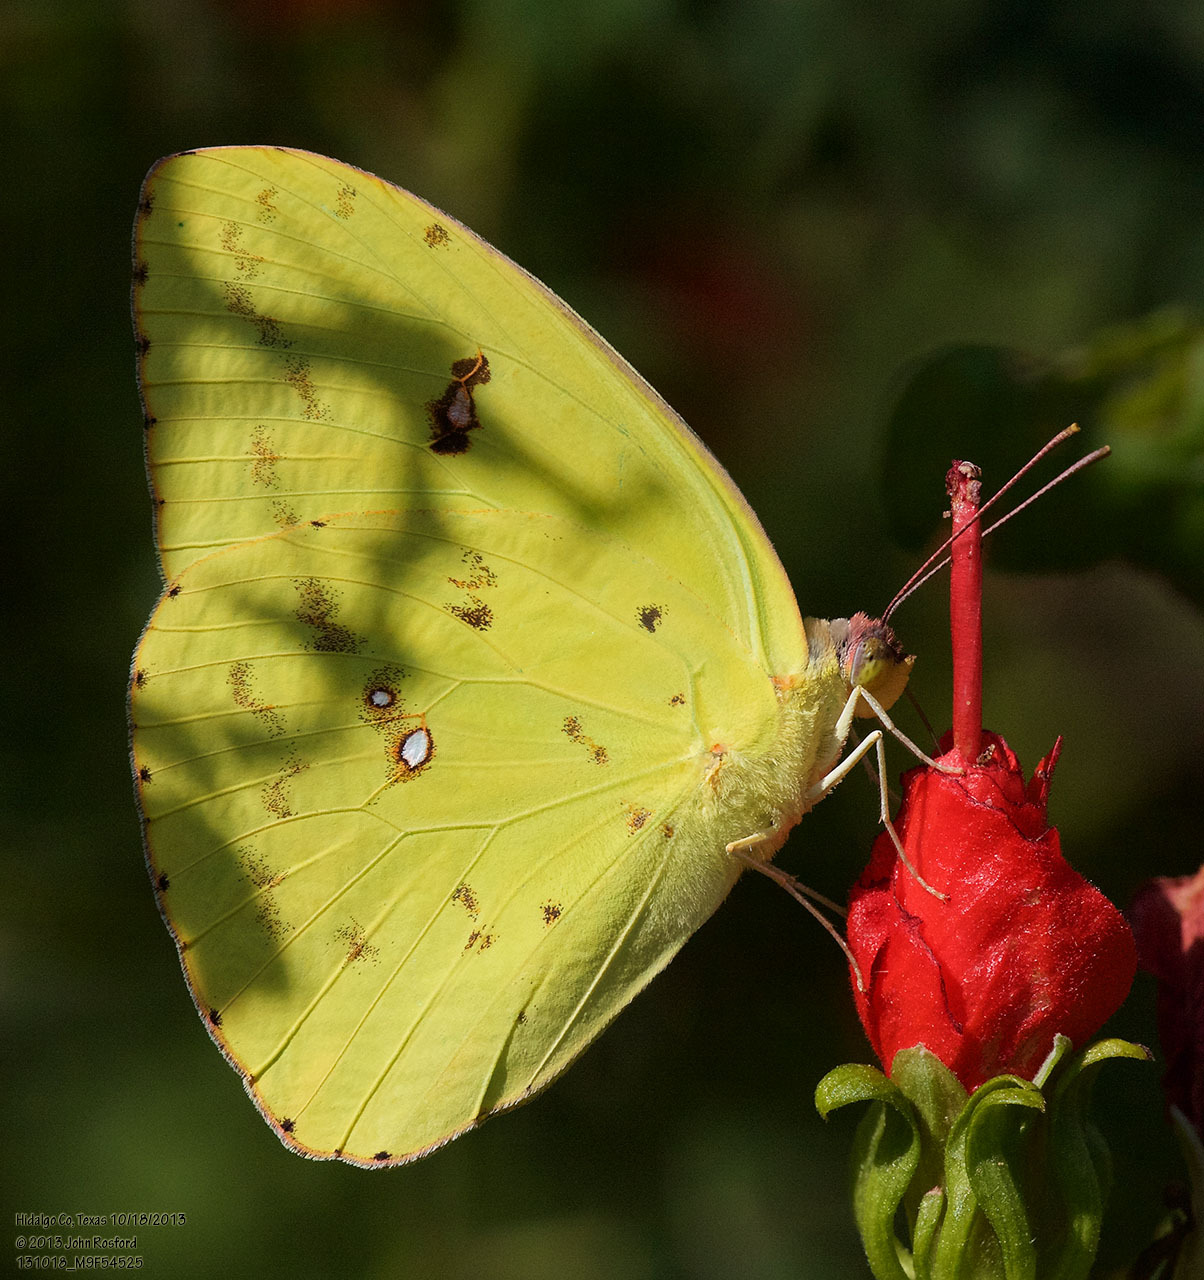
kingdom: Animalia
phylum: Arthropoda
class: Insecta
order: Lepidoptera
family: Pieridae
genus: Phoebis
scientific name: Phoebis sennae
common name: Cloudless sulphur
